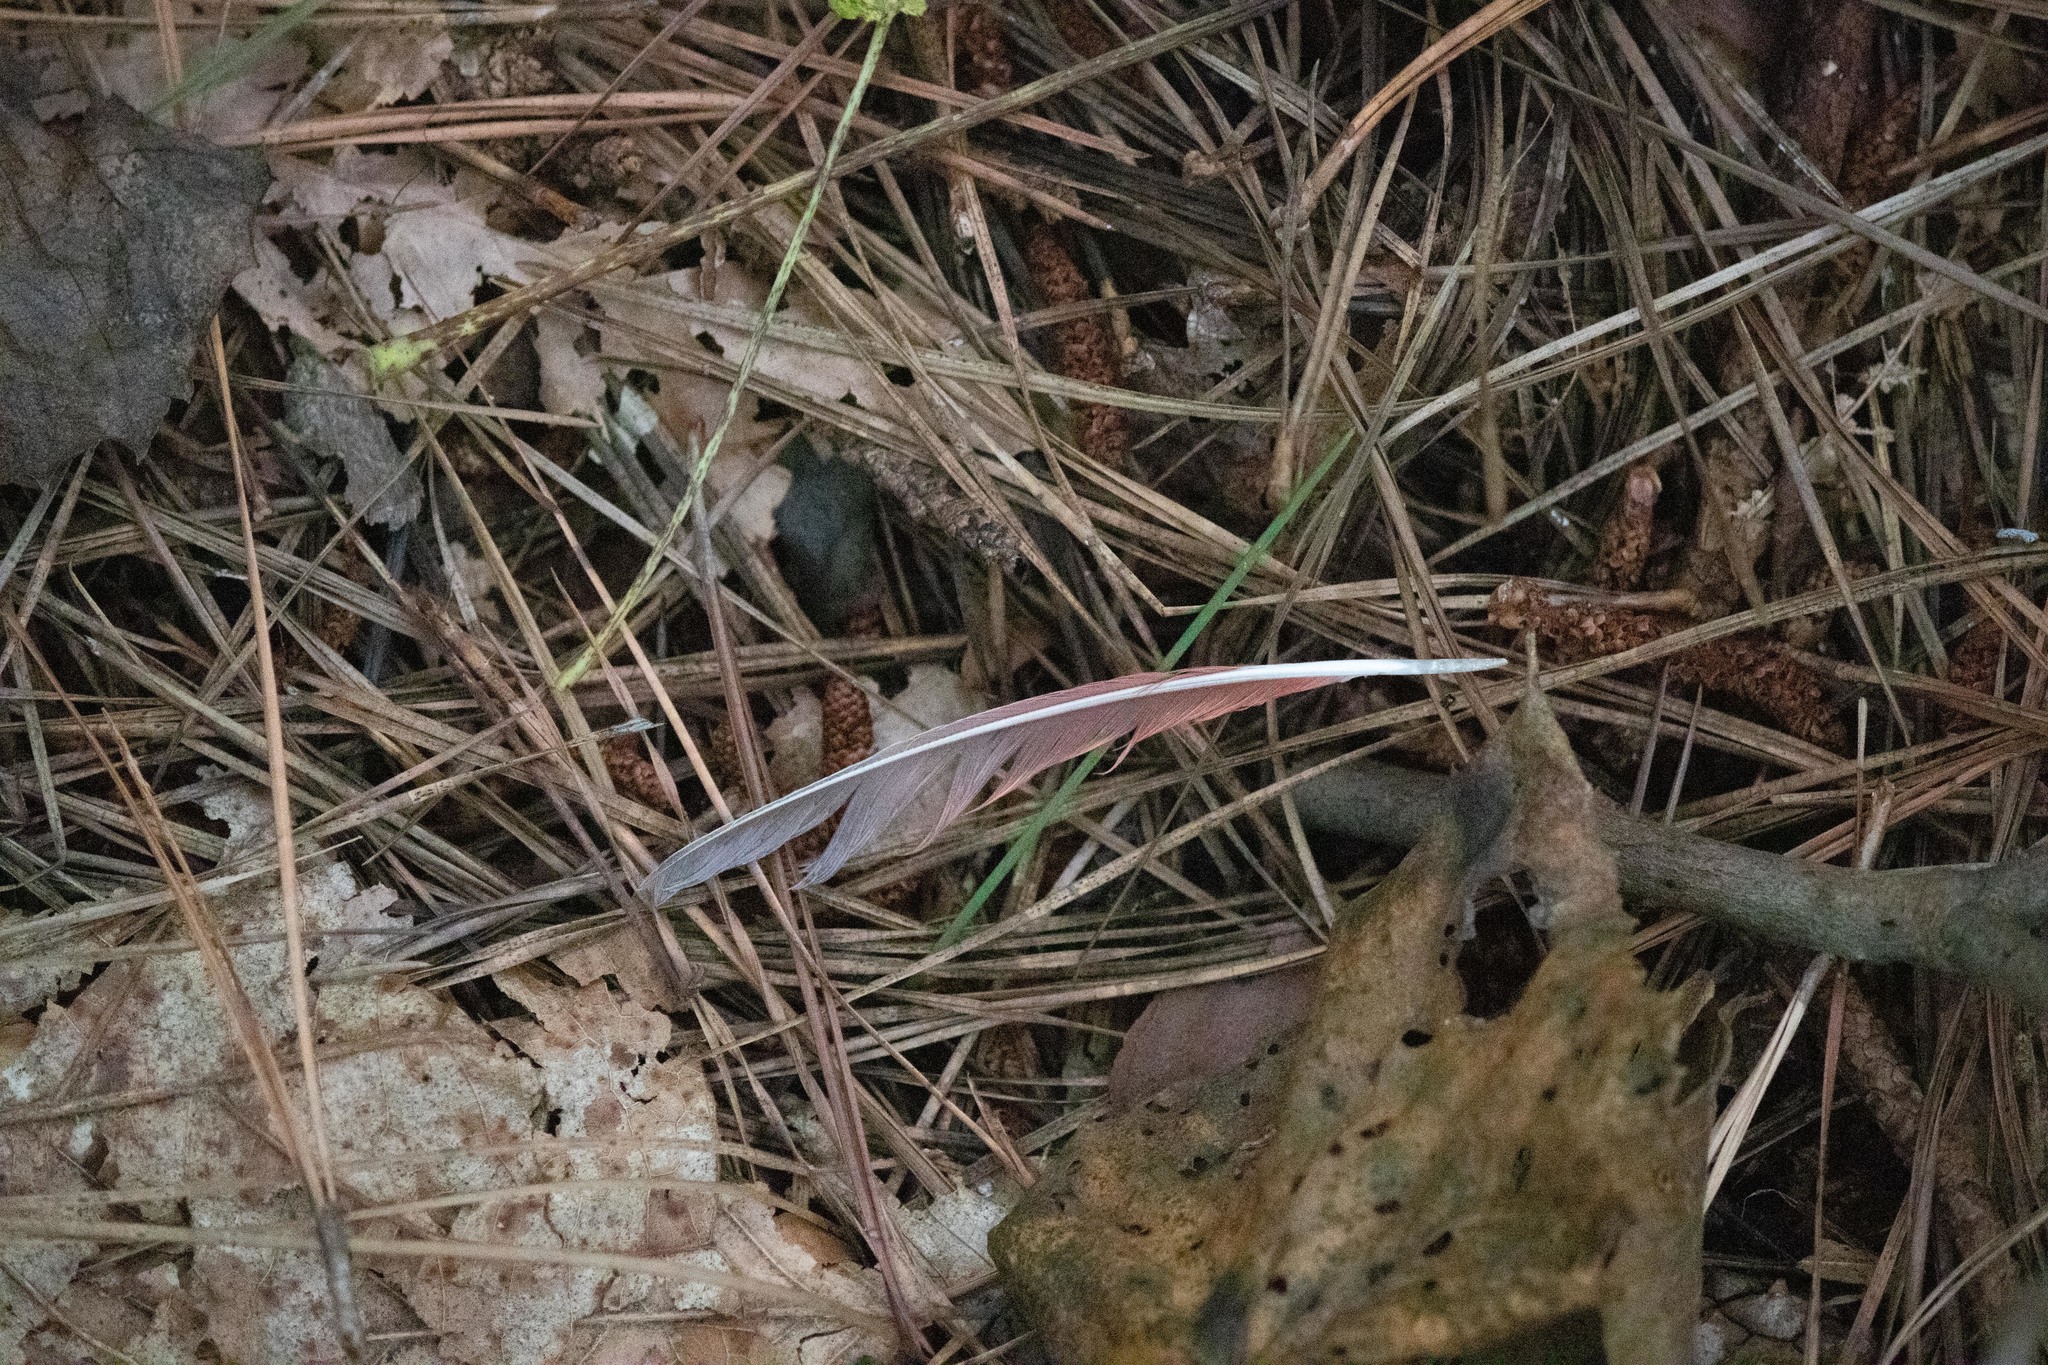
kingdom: Animalia
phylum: Chordata
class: Aves
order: Passeriformes
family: Cardinalidae
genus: Cardinalis
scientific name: Cardinalis cardinalis
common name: Northern cardinal
